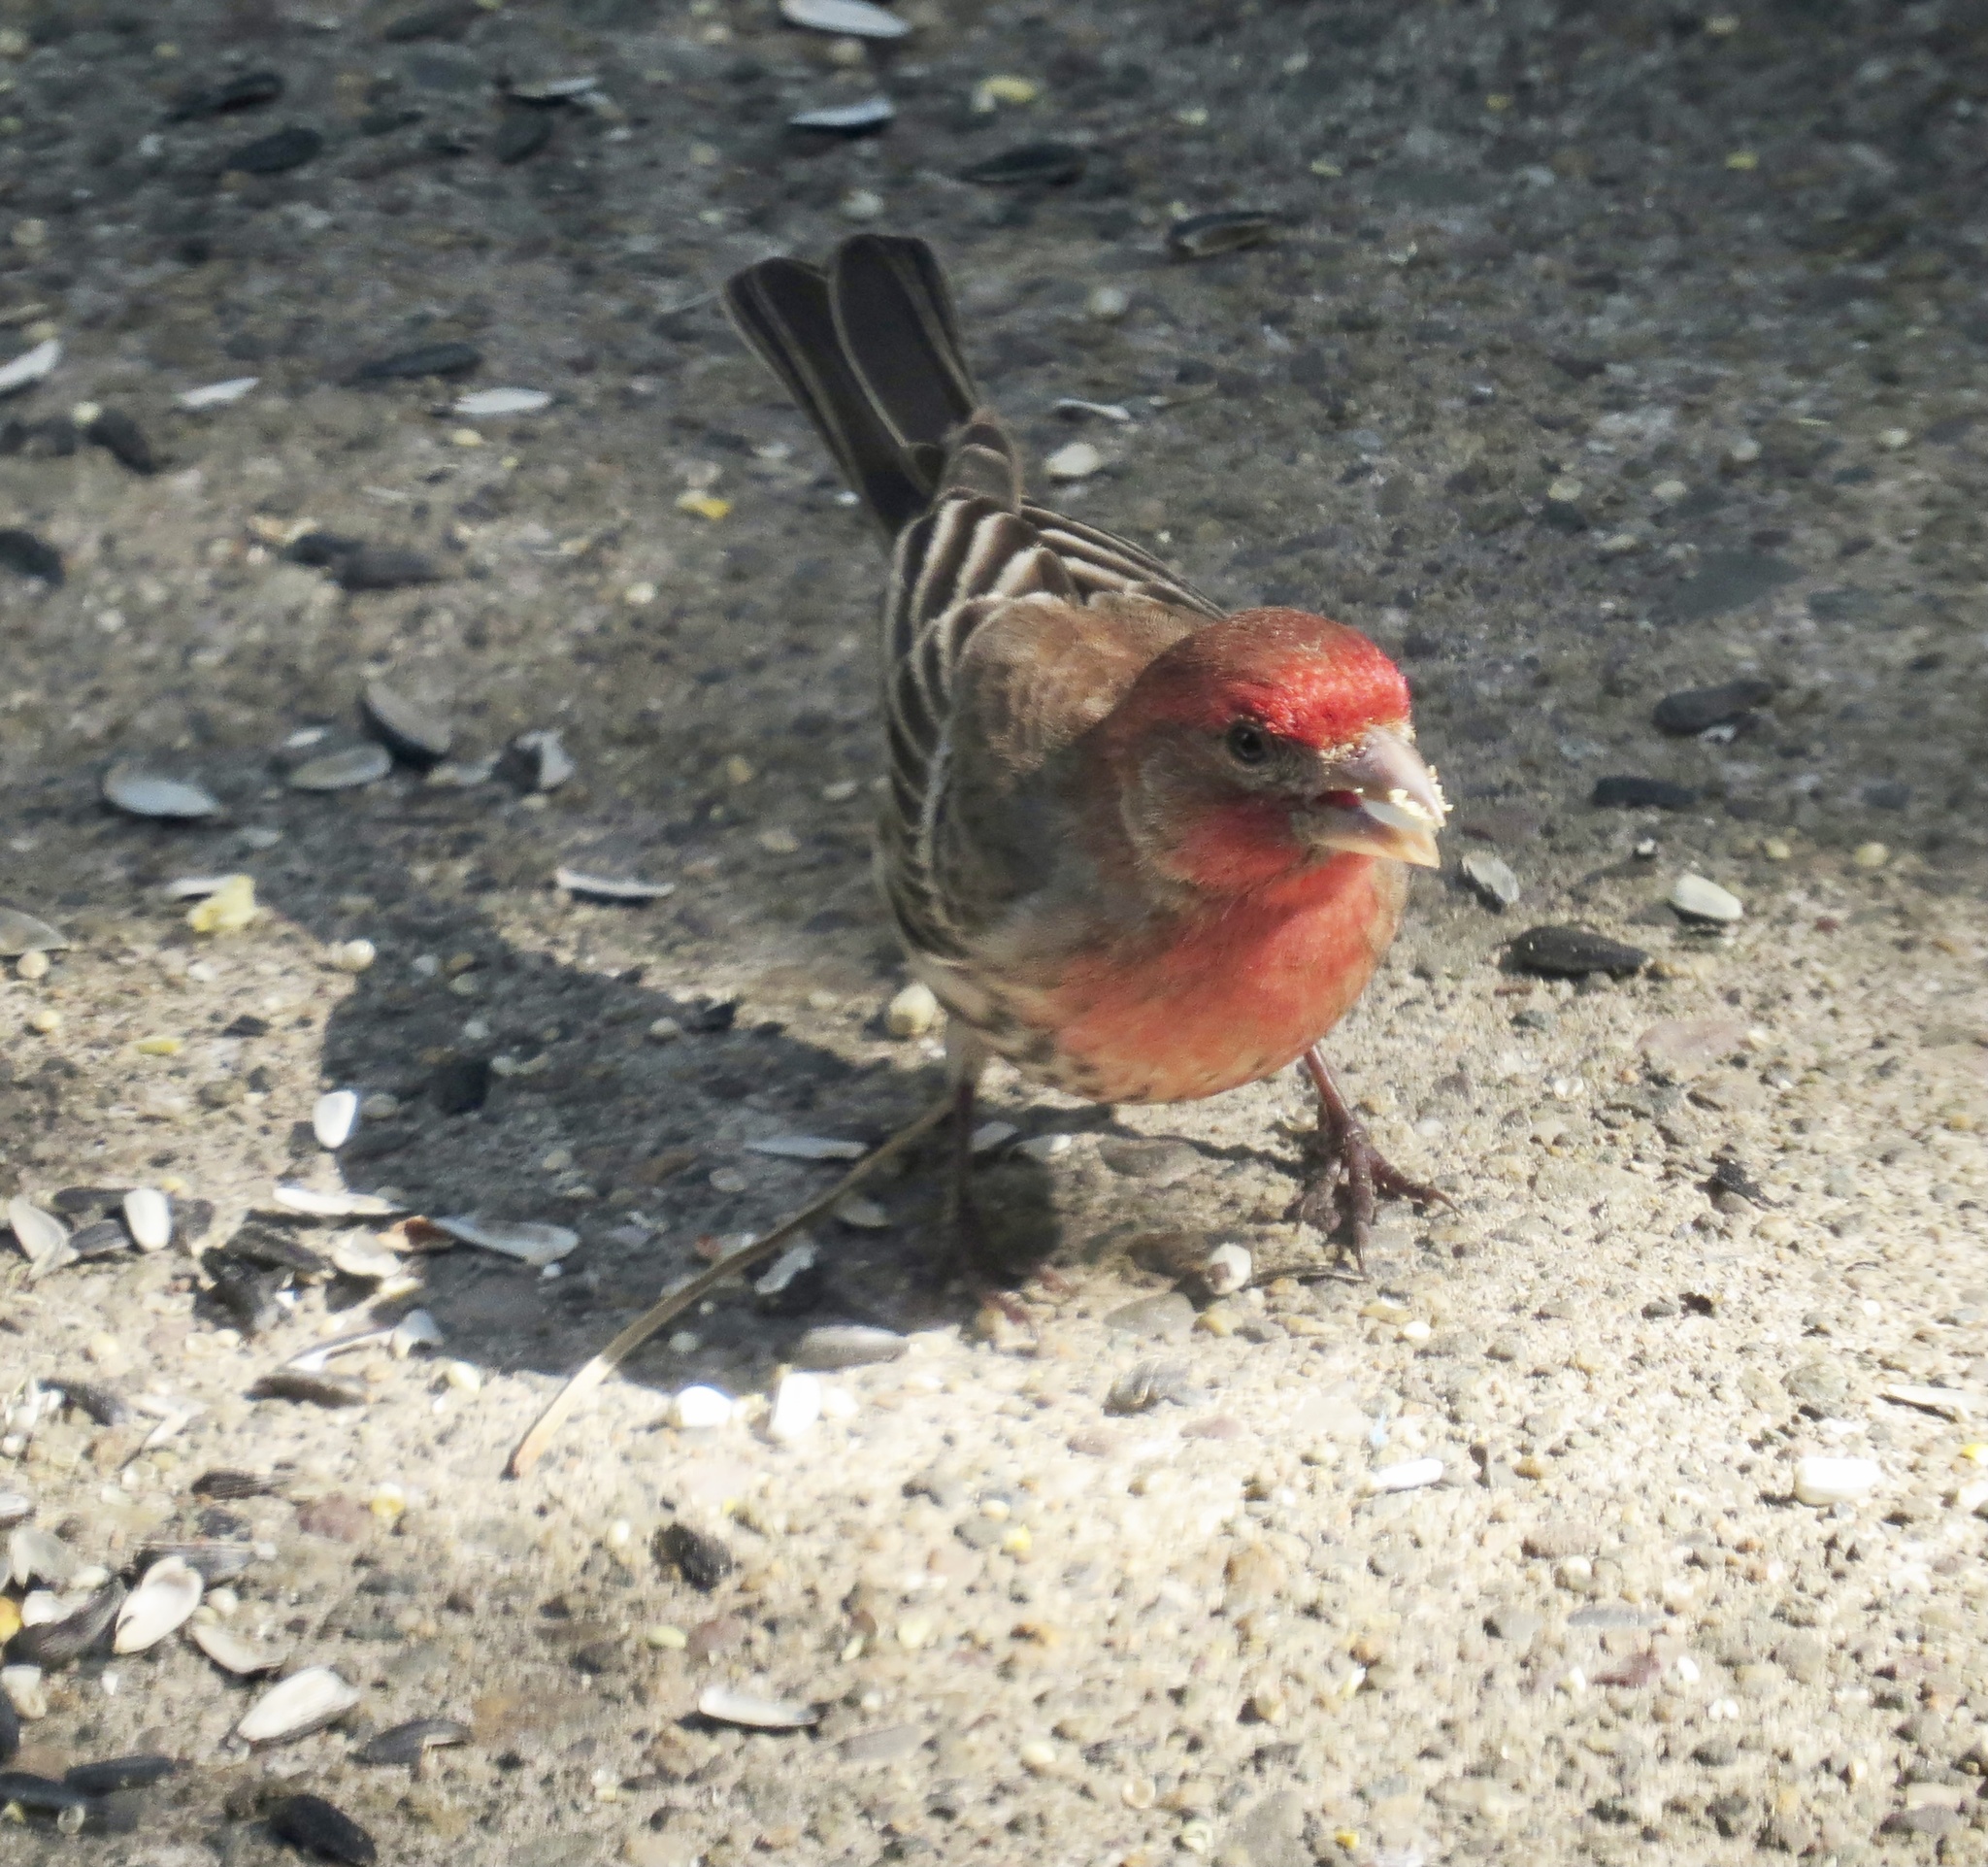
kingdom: Animalia
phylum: Chordata
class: Aves
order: Passeriformes
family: Fringillidae
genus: Haemorhous
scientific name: Haemorhous mexicanus
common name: House finch
